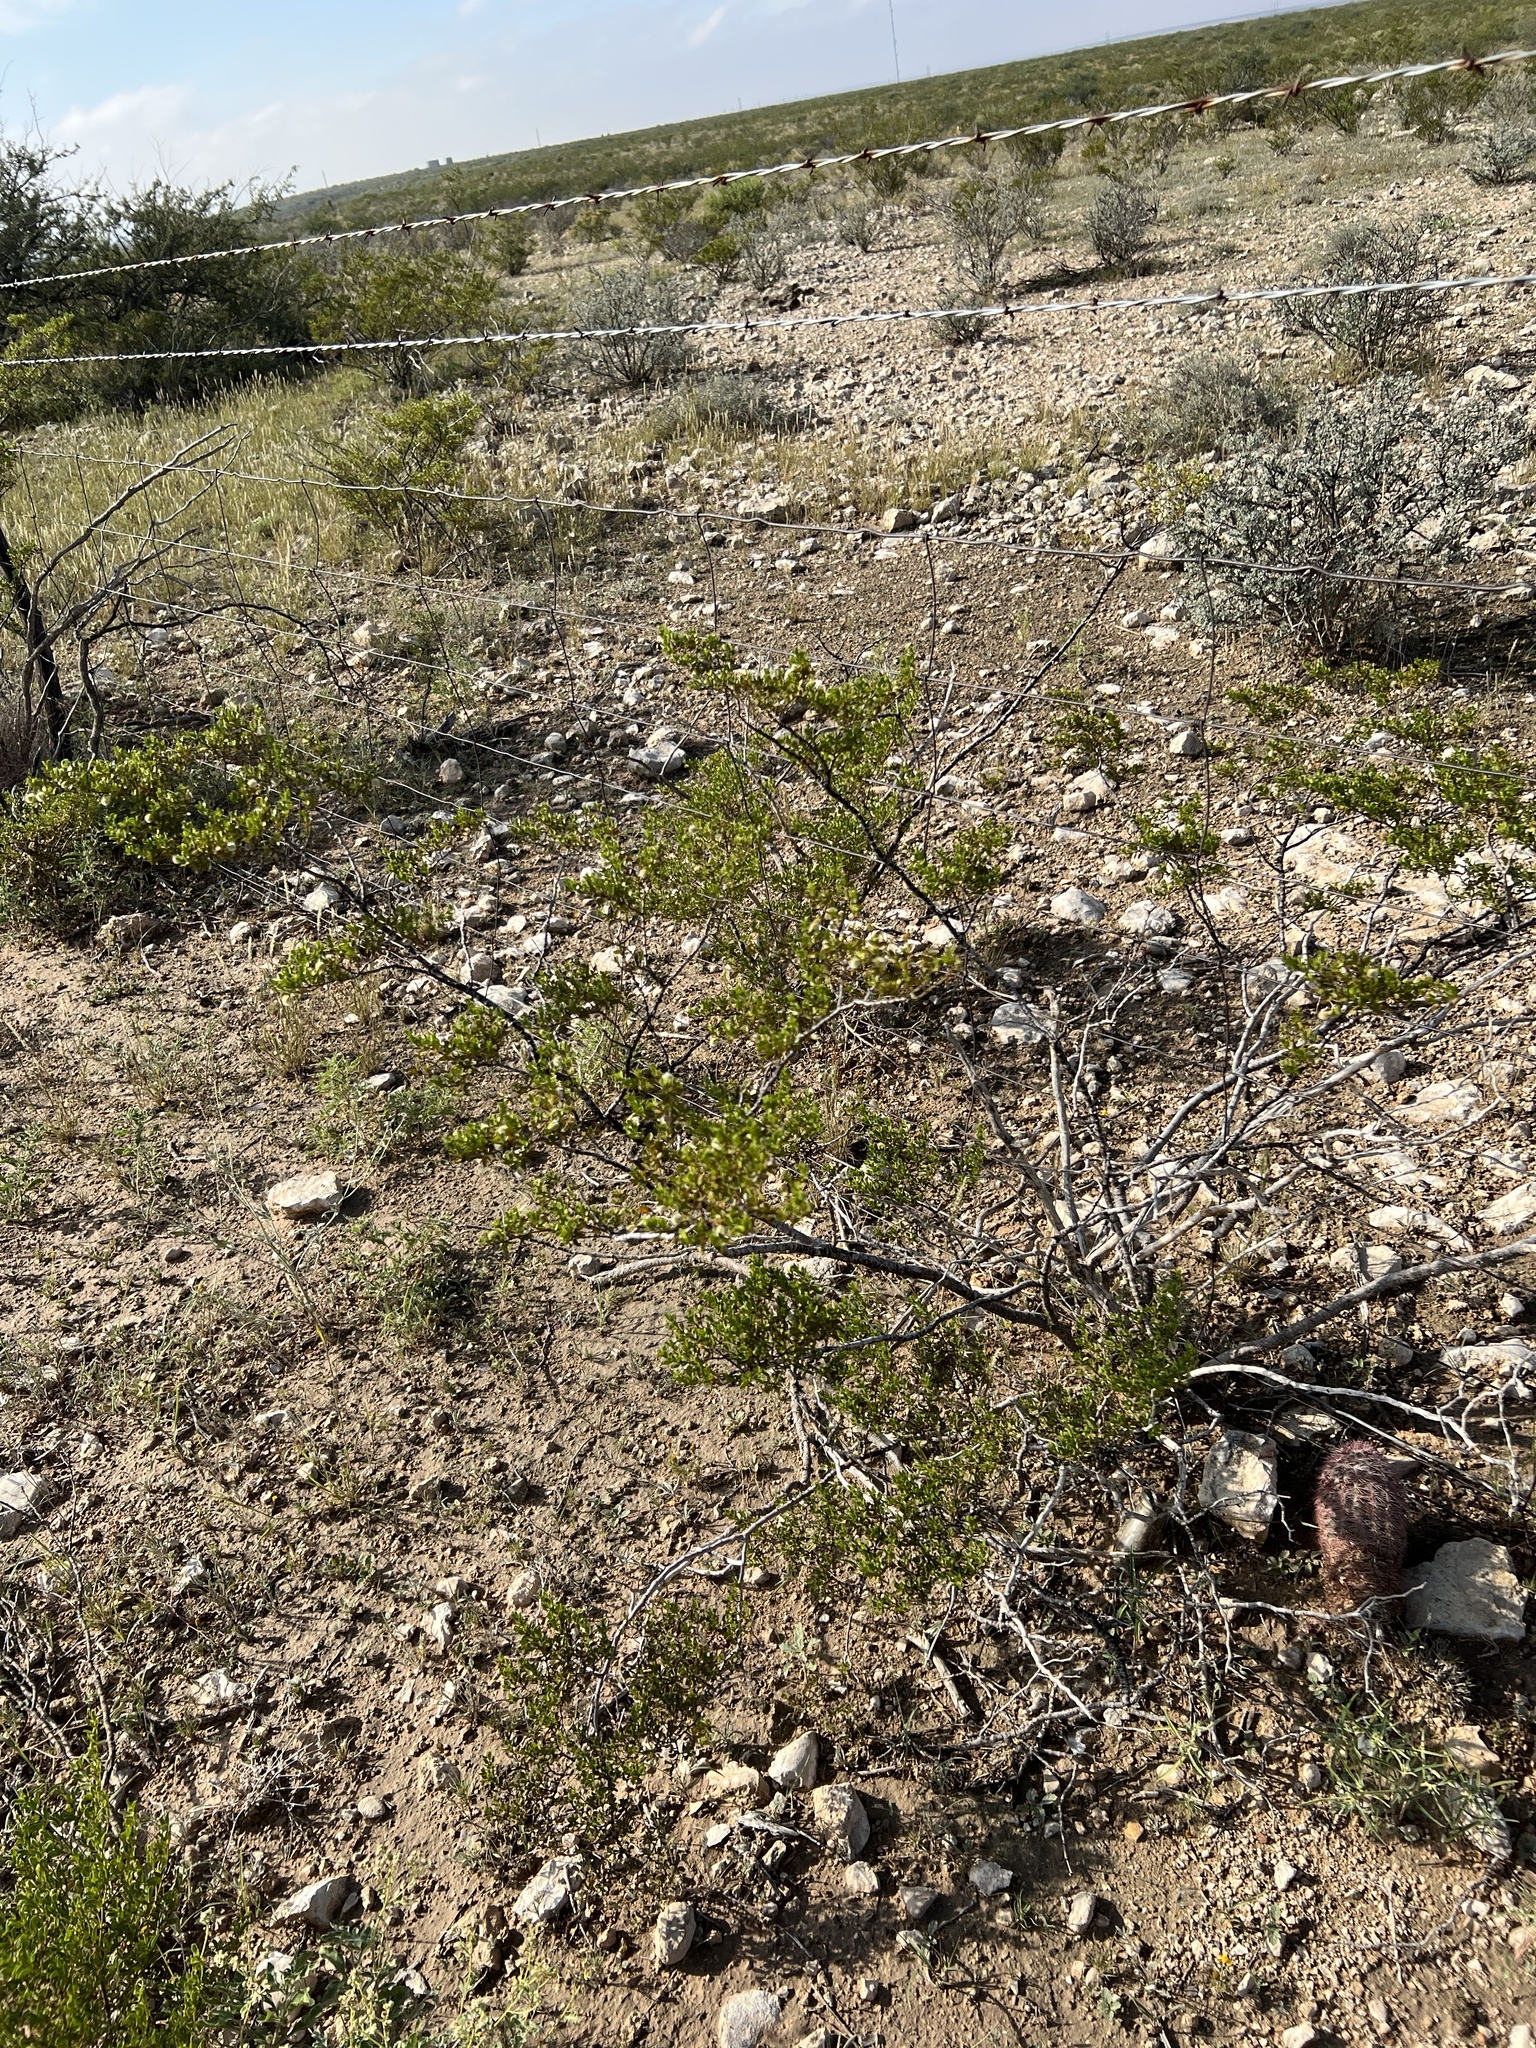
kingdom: Plantae
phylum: Tracheophyta
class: Magnoliopsida
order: Zygophyllales
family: Zygophyllaceae
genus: Larrea
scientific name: Larrea tridentata
